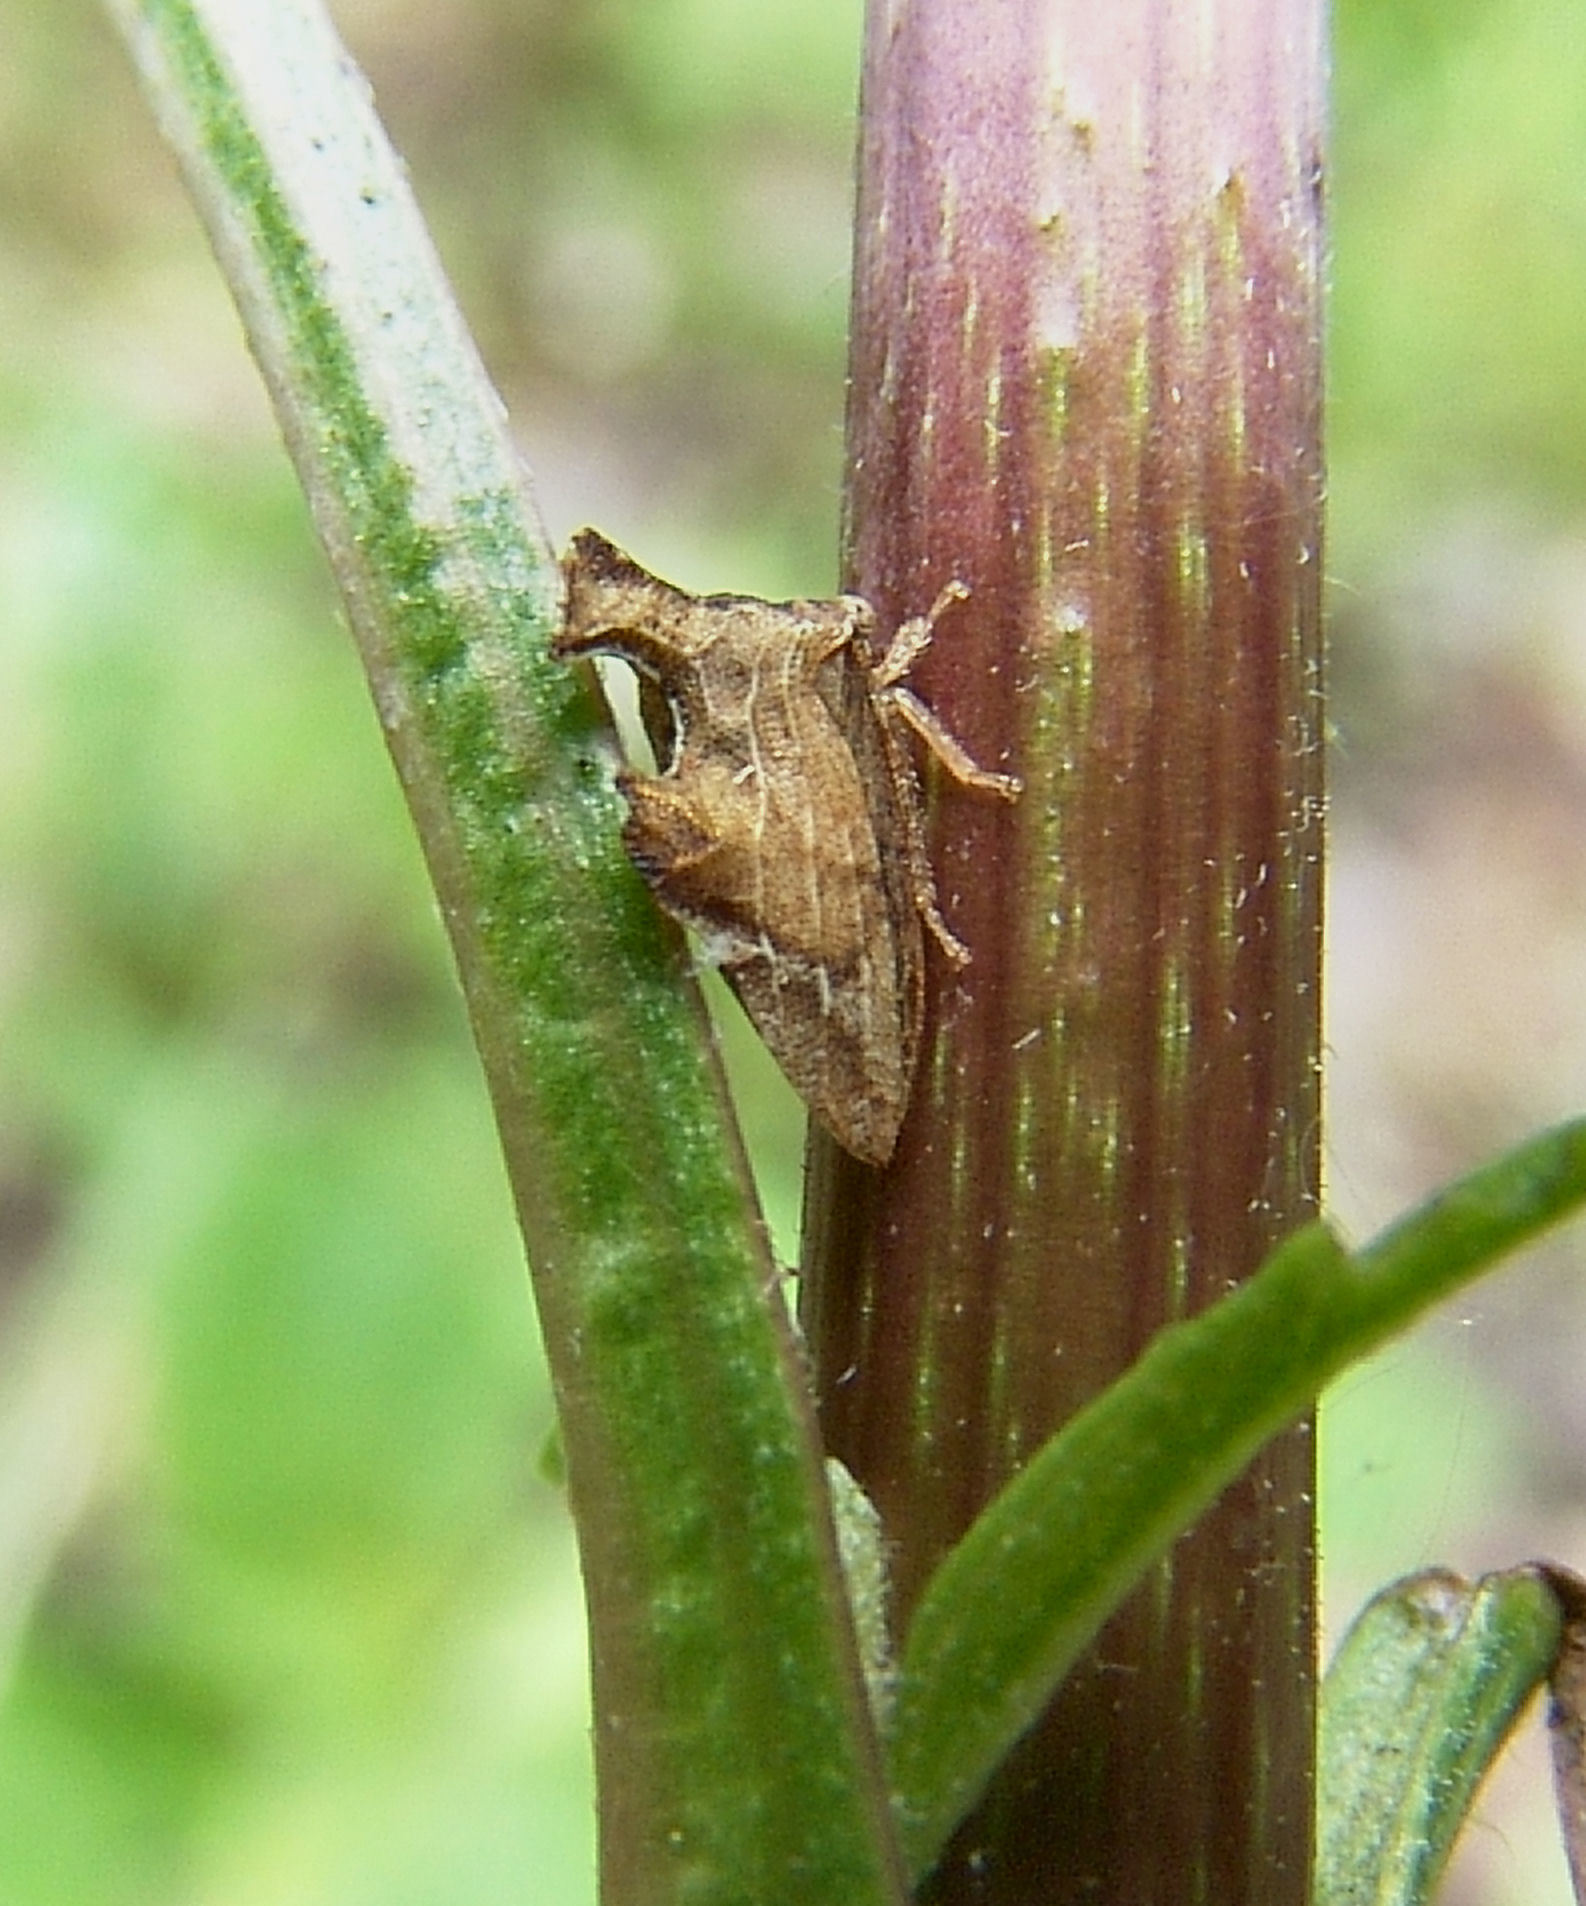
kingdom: Animalia
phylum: Arthropoda
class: Insecta
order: Hemiptera
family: Membracidae
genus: Entylia
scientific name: Entylia carinata
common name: Keeled treehopper
